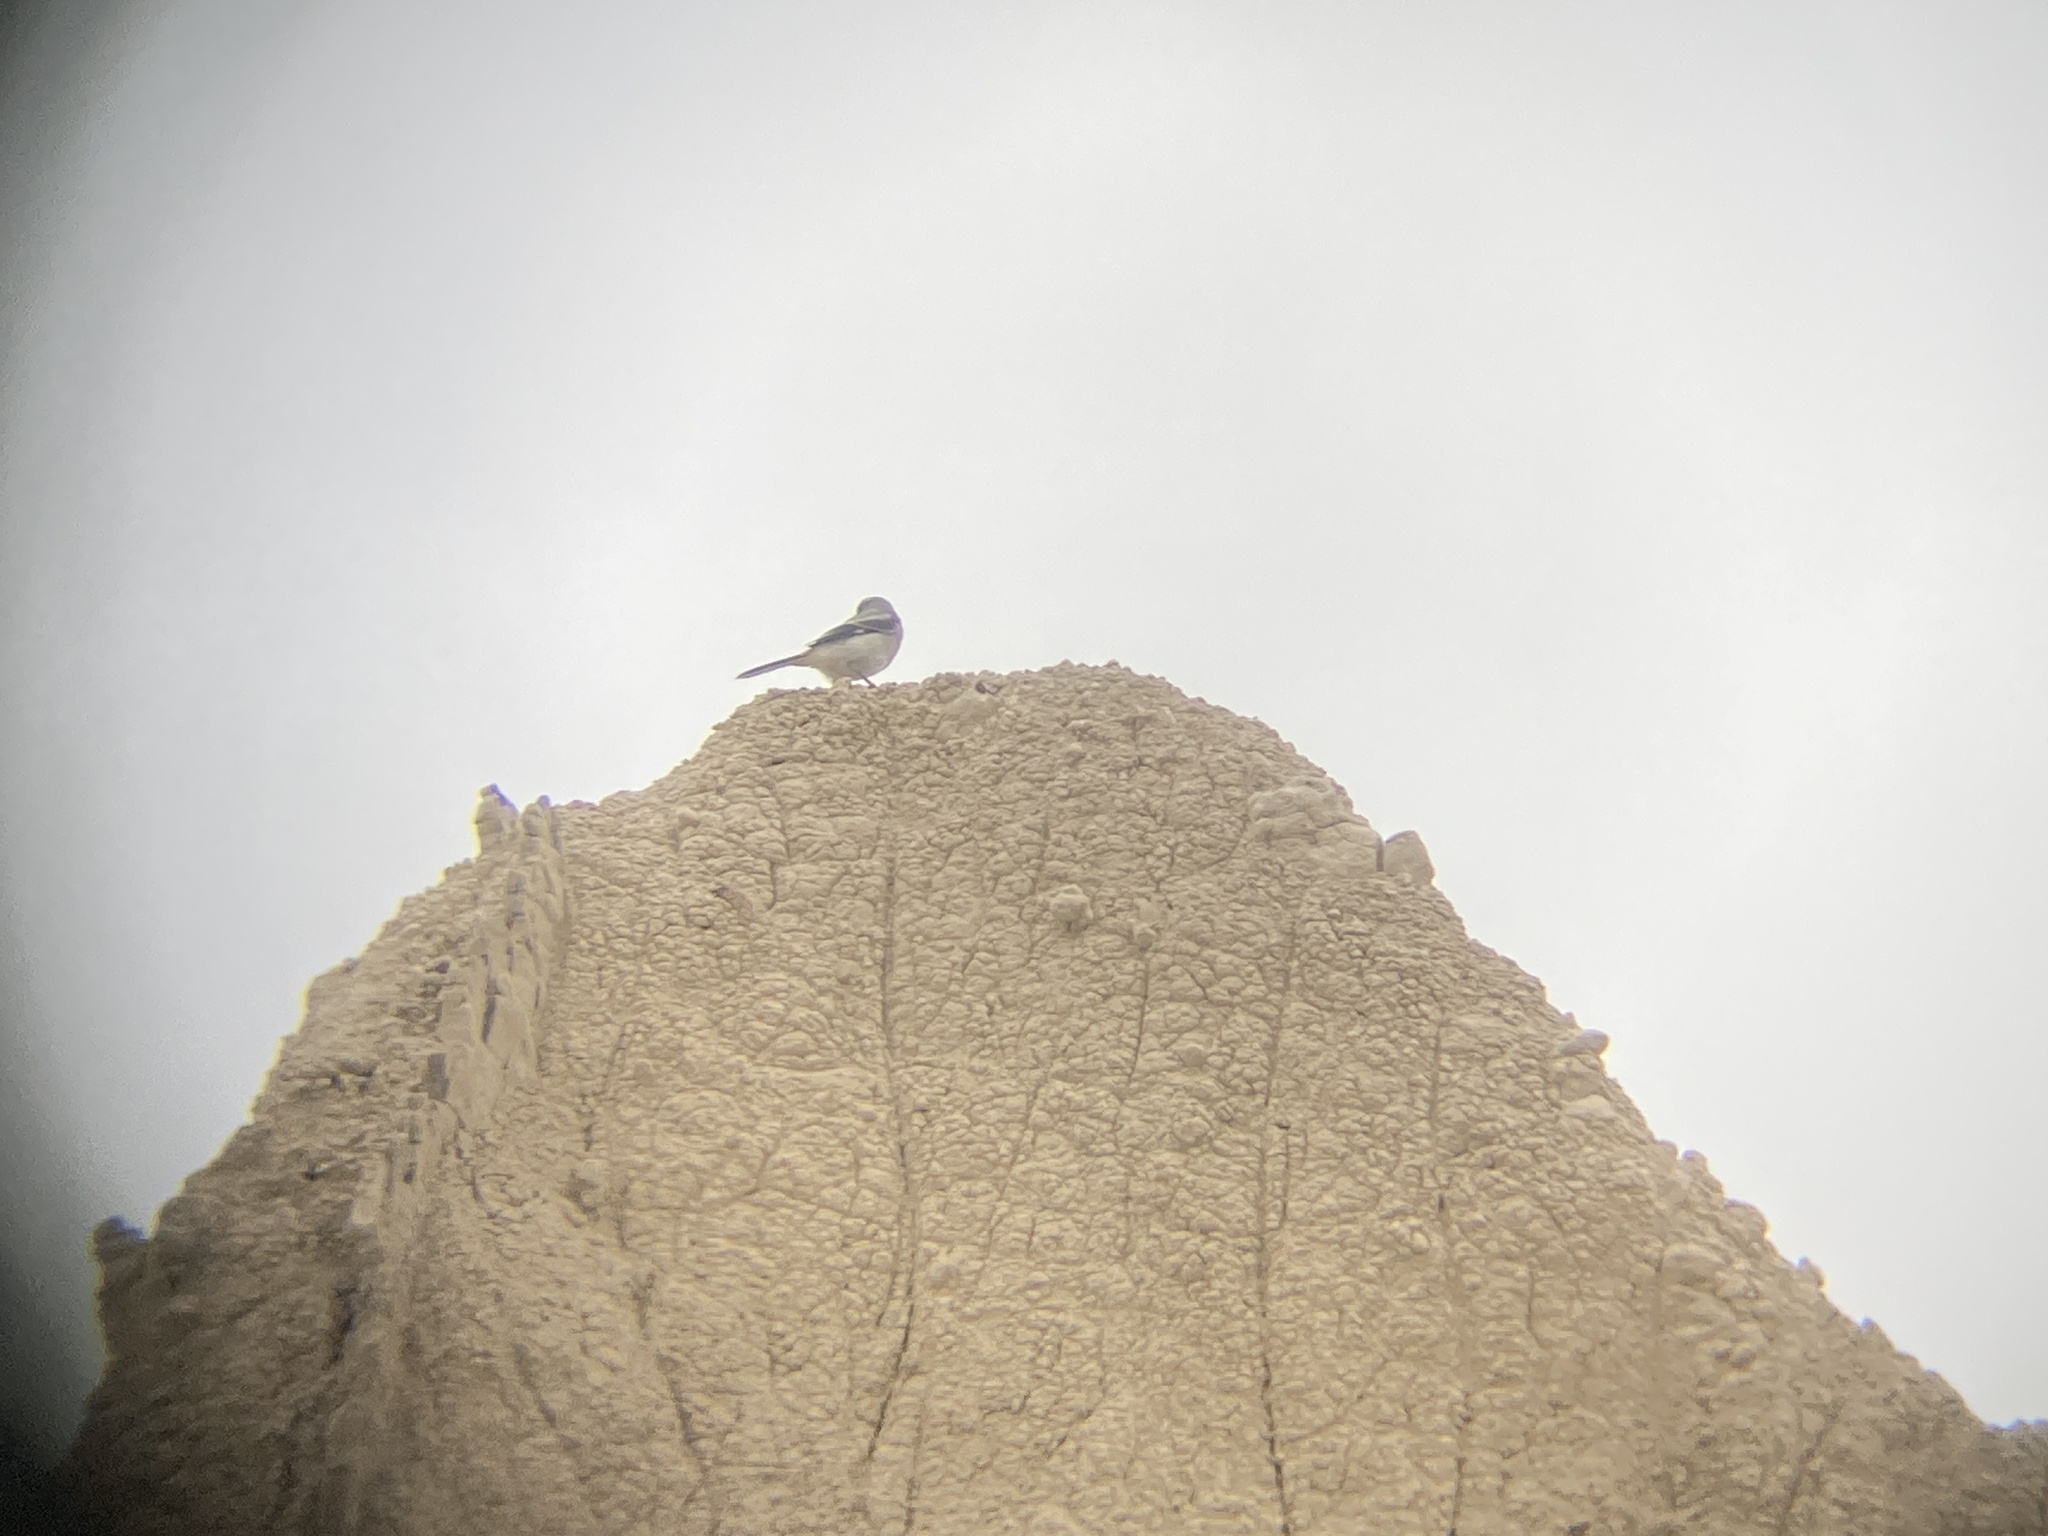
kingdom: Animalia
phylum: Chordata
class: Aves
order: Passeriformes
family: Laniidae
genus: Lanius
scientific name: Lanius ludovicianus
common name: Loggerhead shrike
